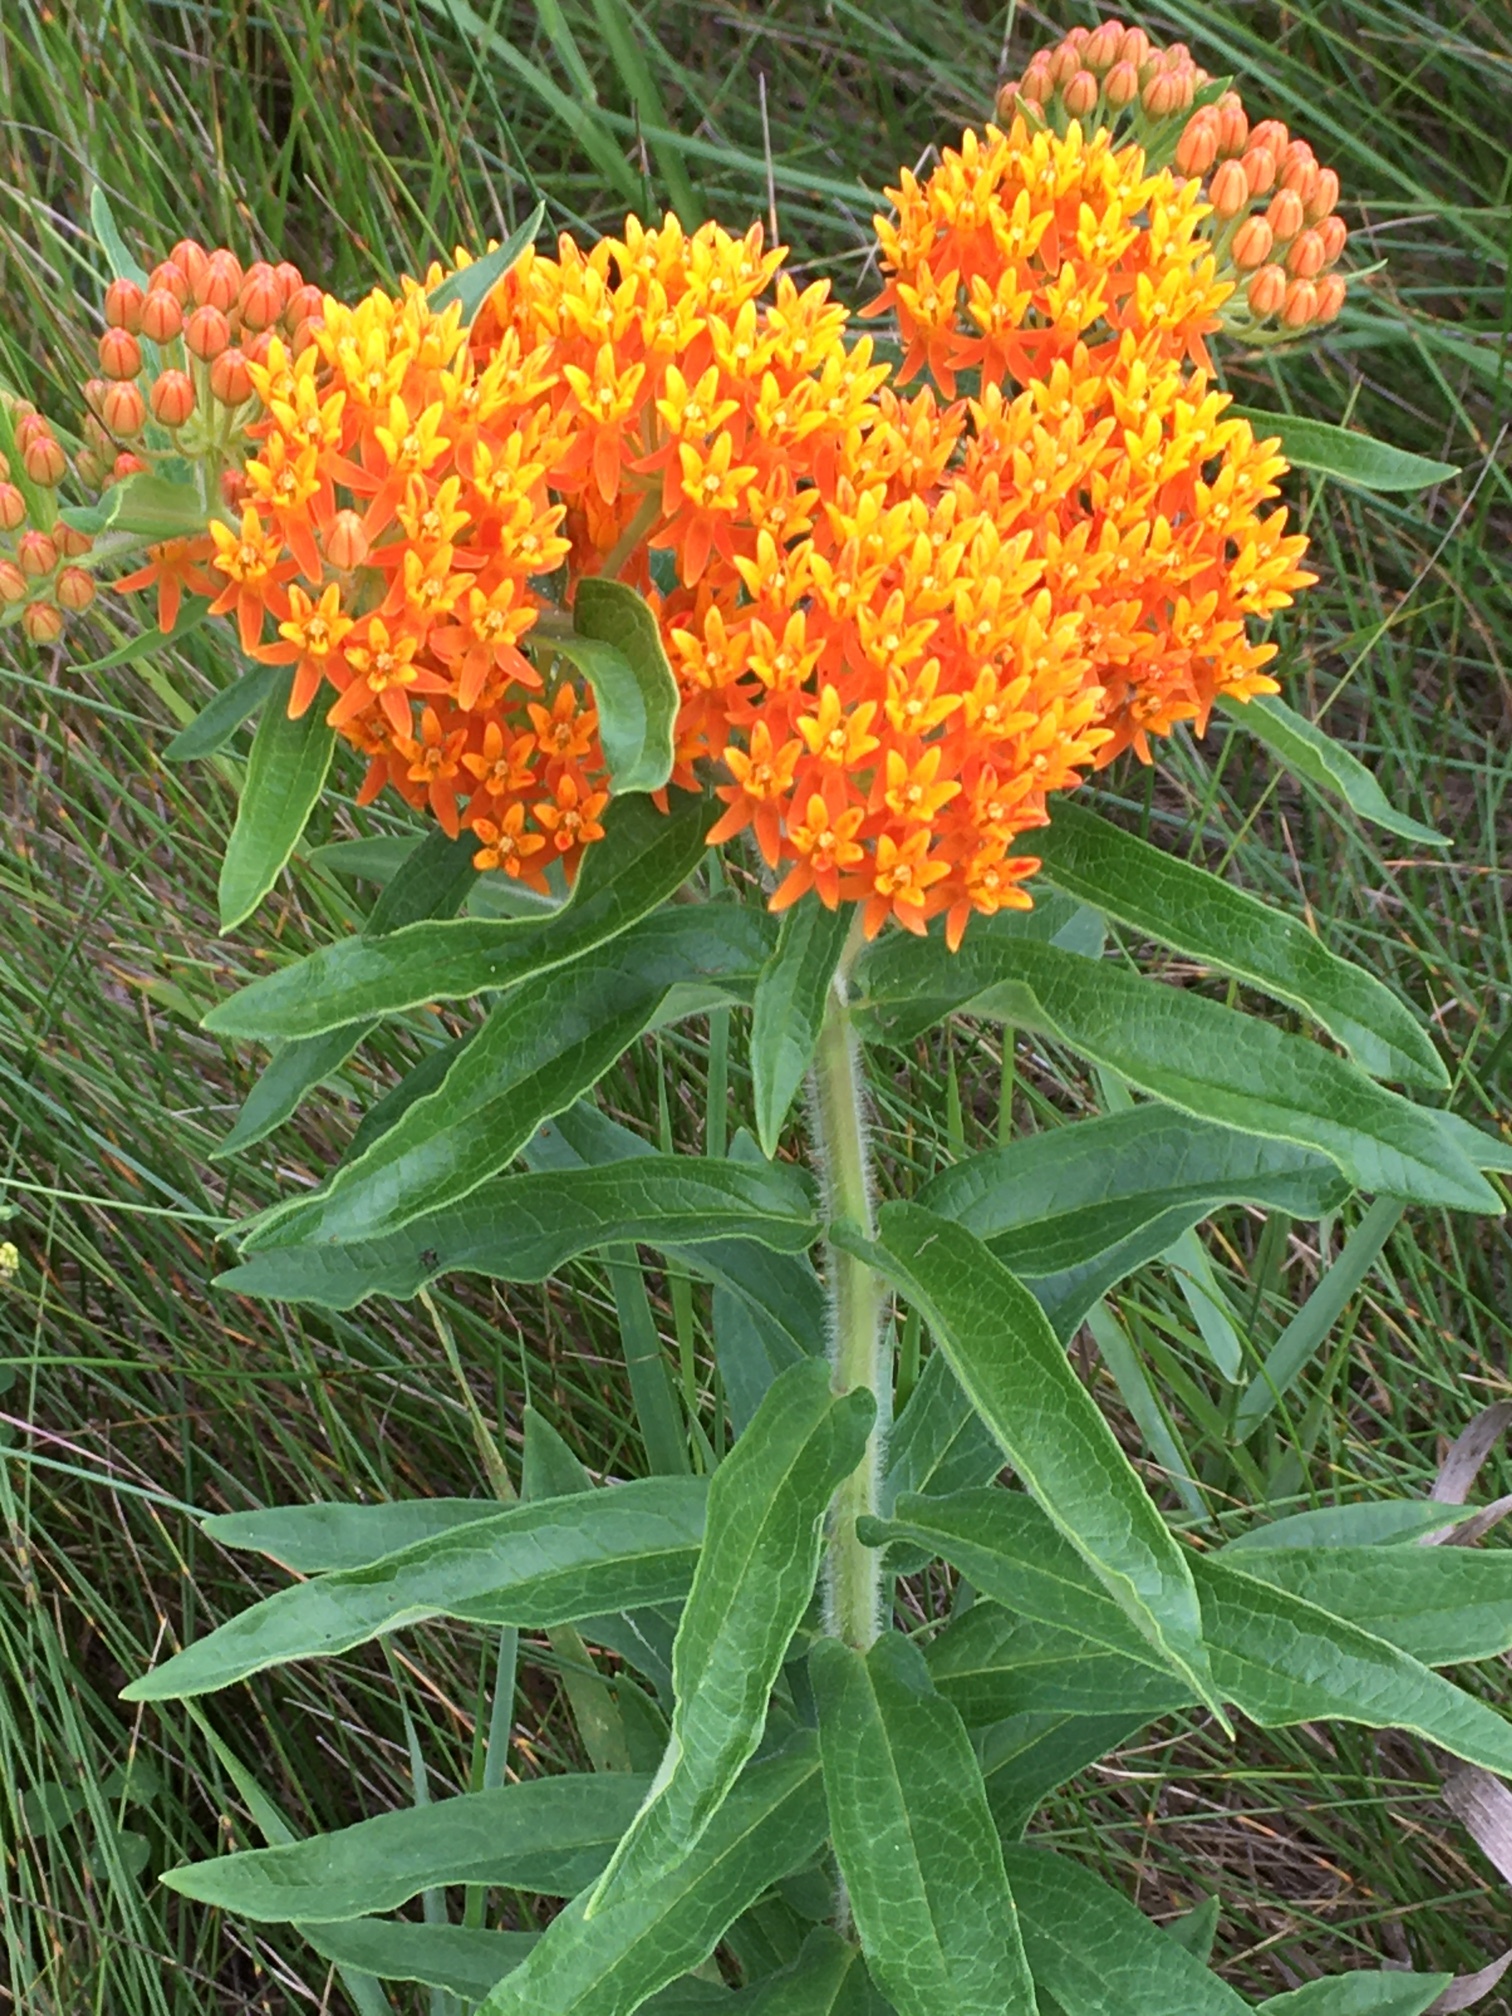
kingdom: Plantae
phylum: Tracheophyta
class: Magnoliopsida
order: Gentianales
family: Apocynaceae
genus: Asclepias
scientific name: Asclepias tuberosa
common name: Butterfly milkweed
